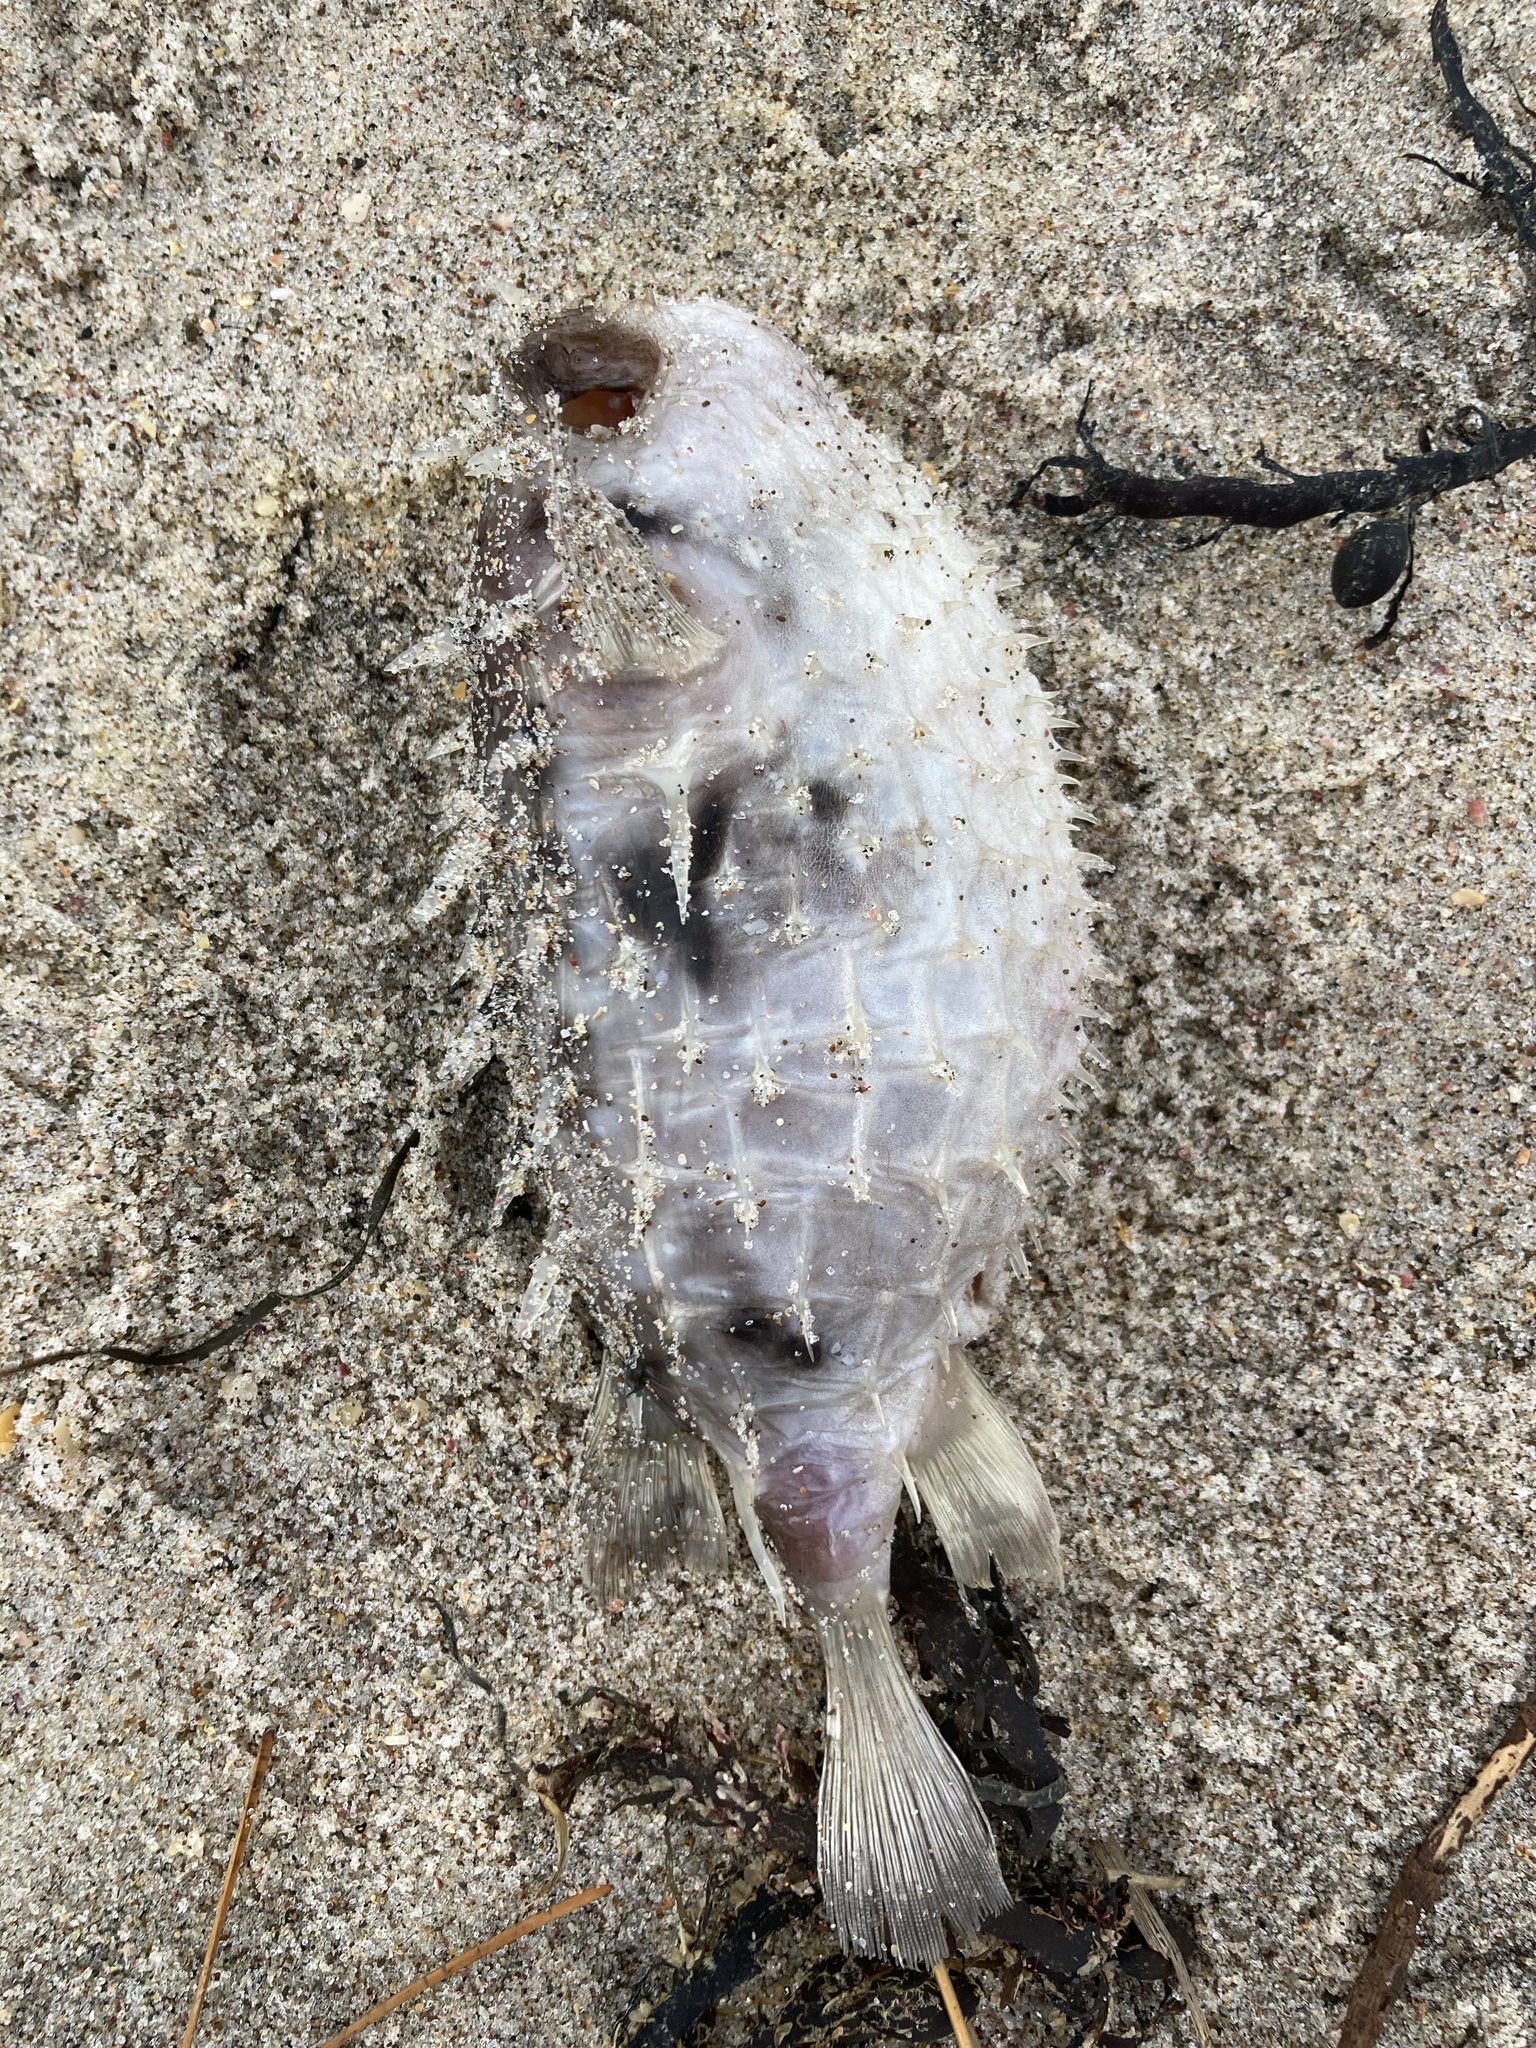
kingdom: Animalia
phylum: Chordata
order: Tetraodontiformes
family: Diodontidae
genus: Allomycterus
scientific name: Allomycterus pilatus
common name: No common name
